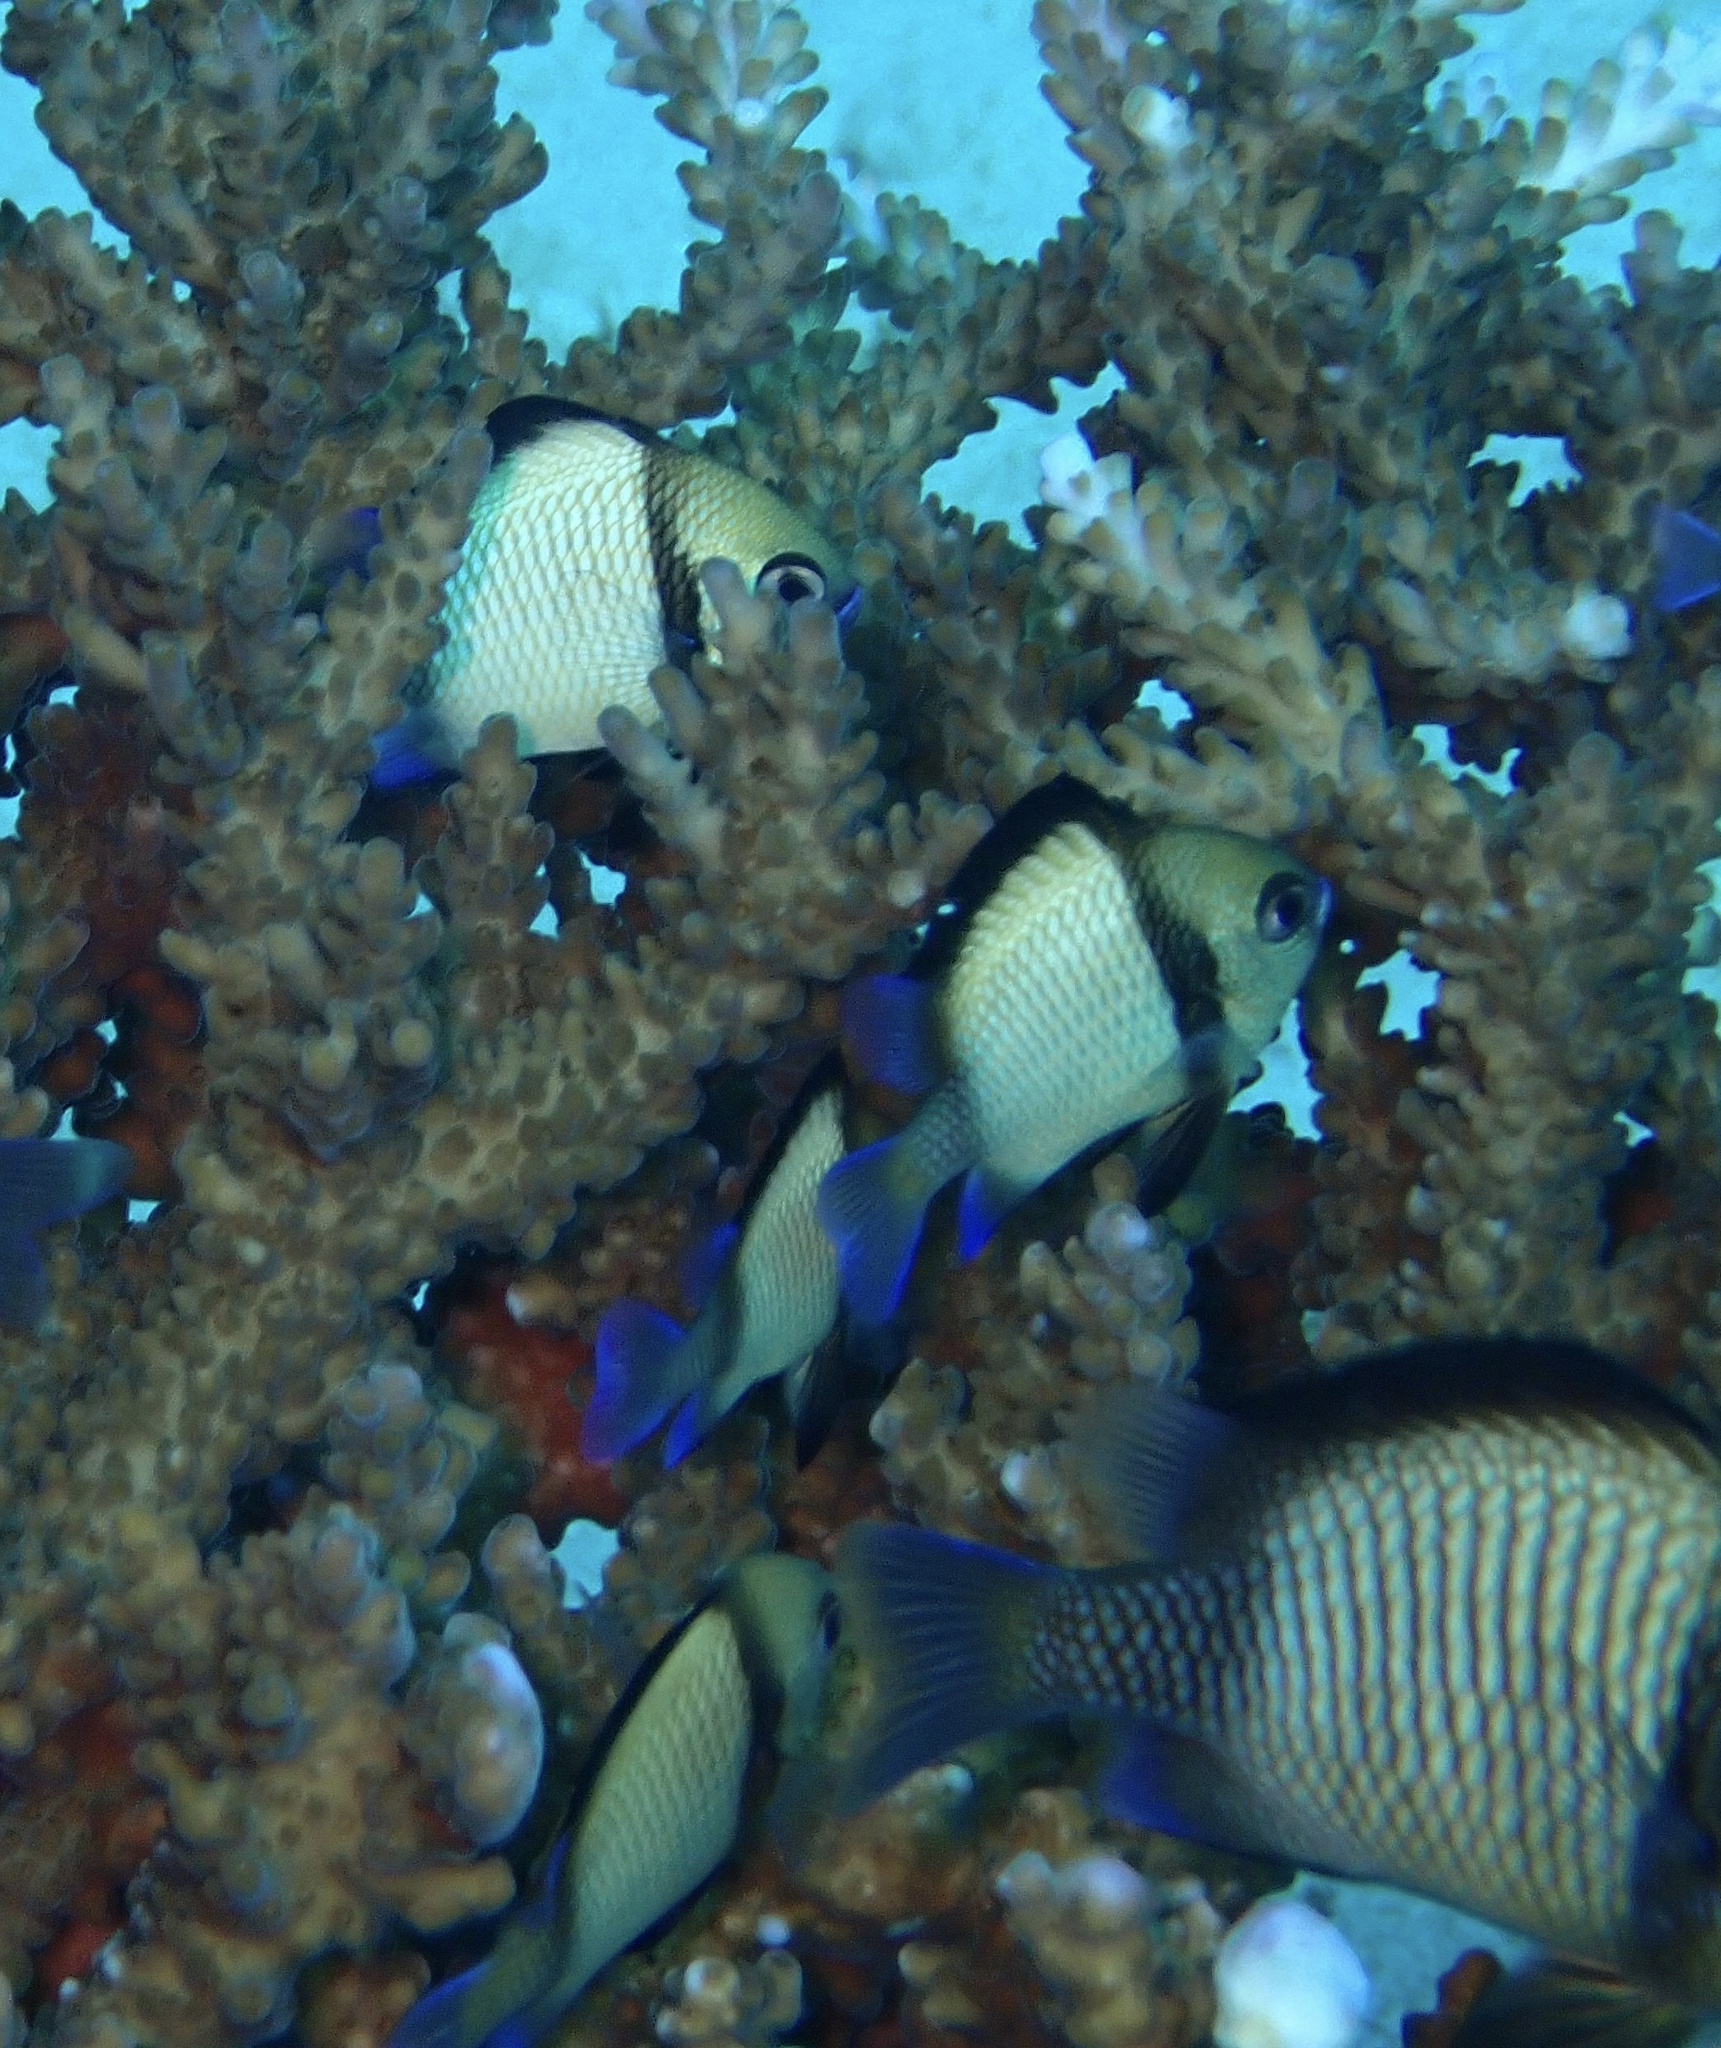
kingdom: Animalia
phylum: Chordata
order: Perciformes
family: Pomacentridae
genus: Dascyllus
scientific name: Dascyllus reticulatus
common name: Reticulated dascyllus
